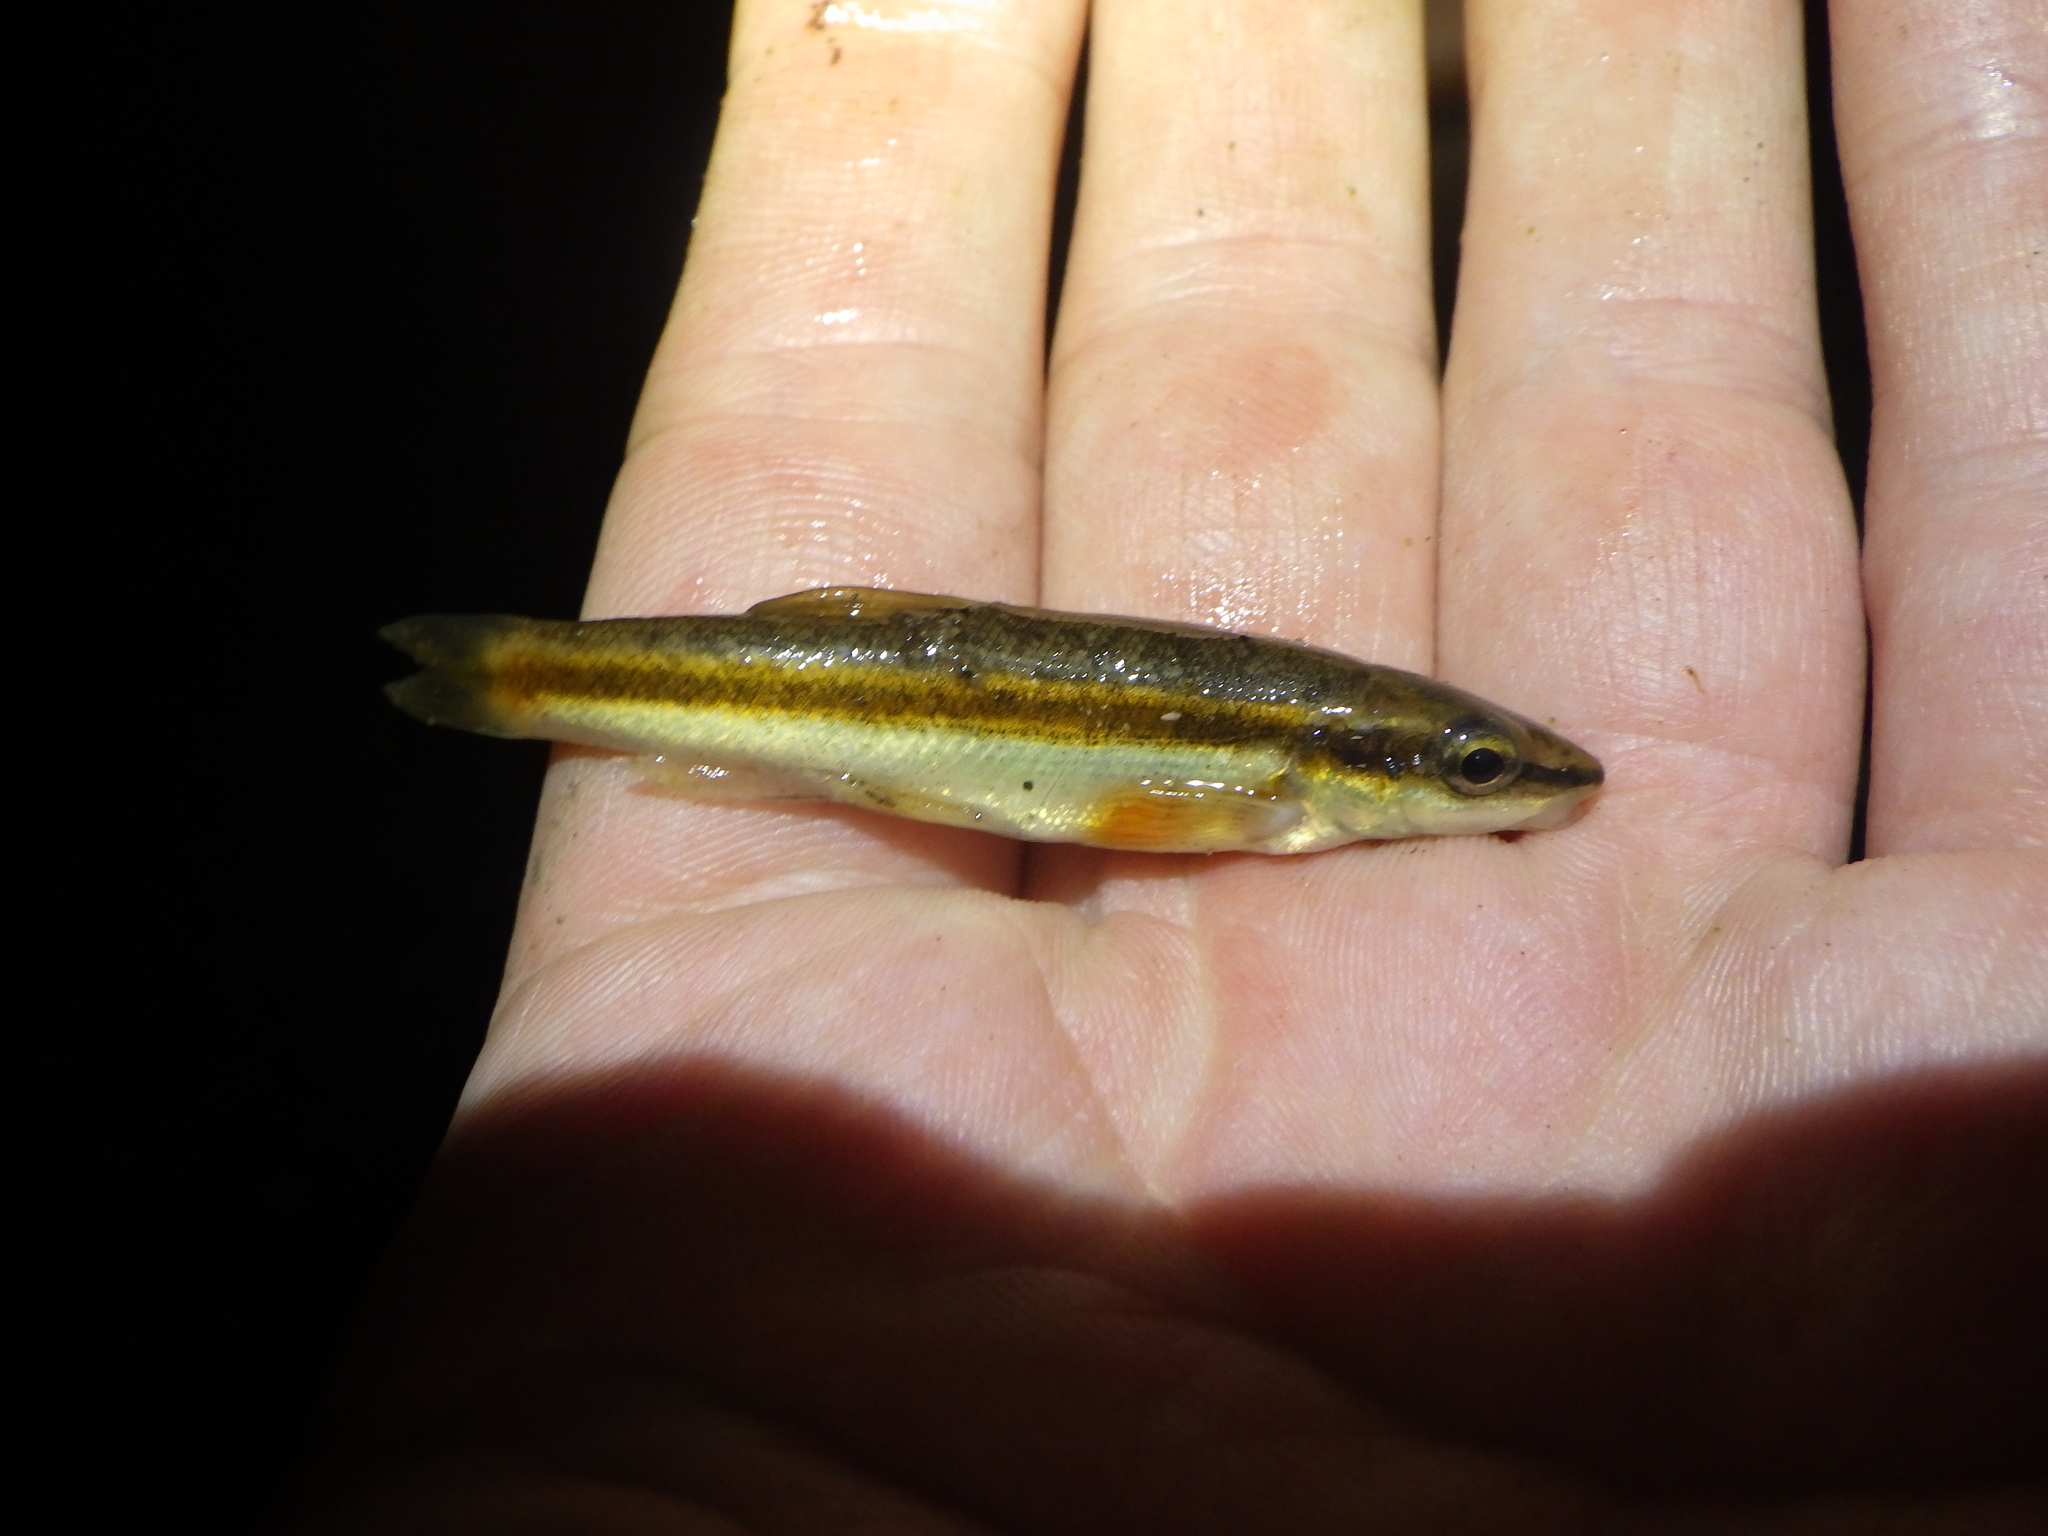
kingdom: Animalia
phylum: Chordata
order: Cypriniformes
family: Cyprinidae
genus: Rhinichthys
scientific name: Rhinichthys atratulus
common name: Eastern blacknose dace
